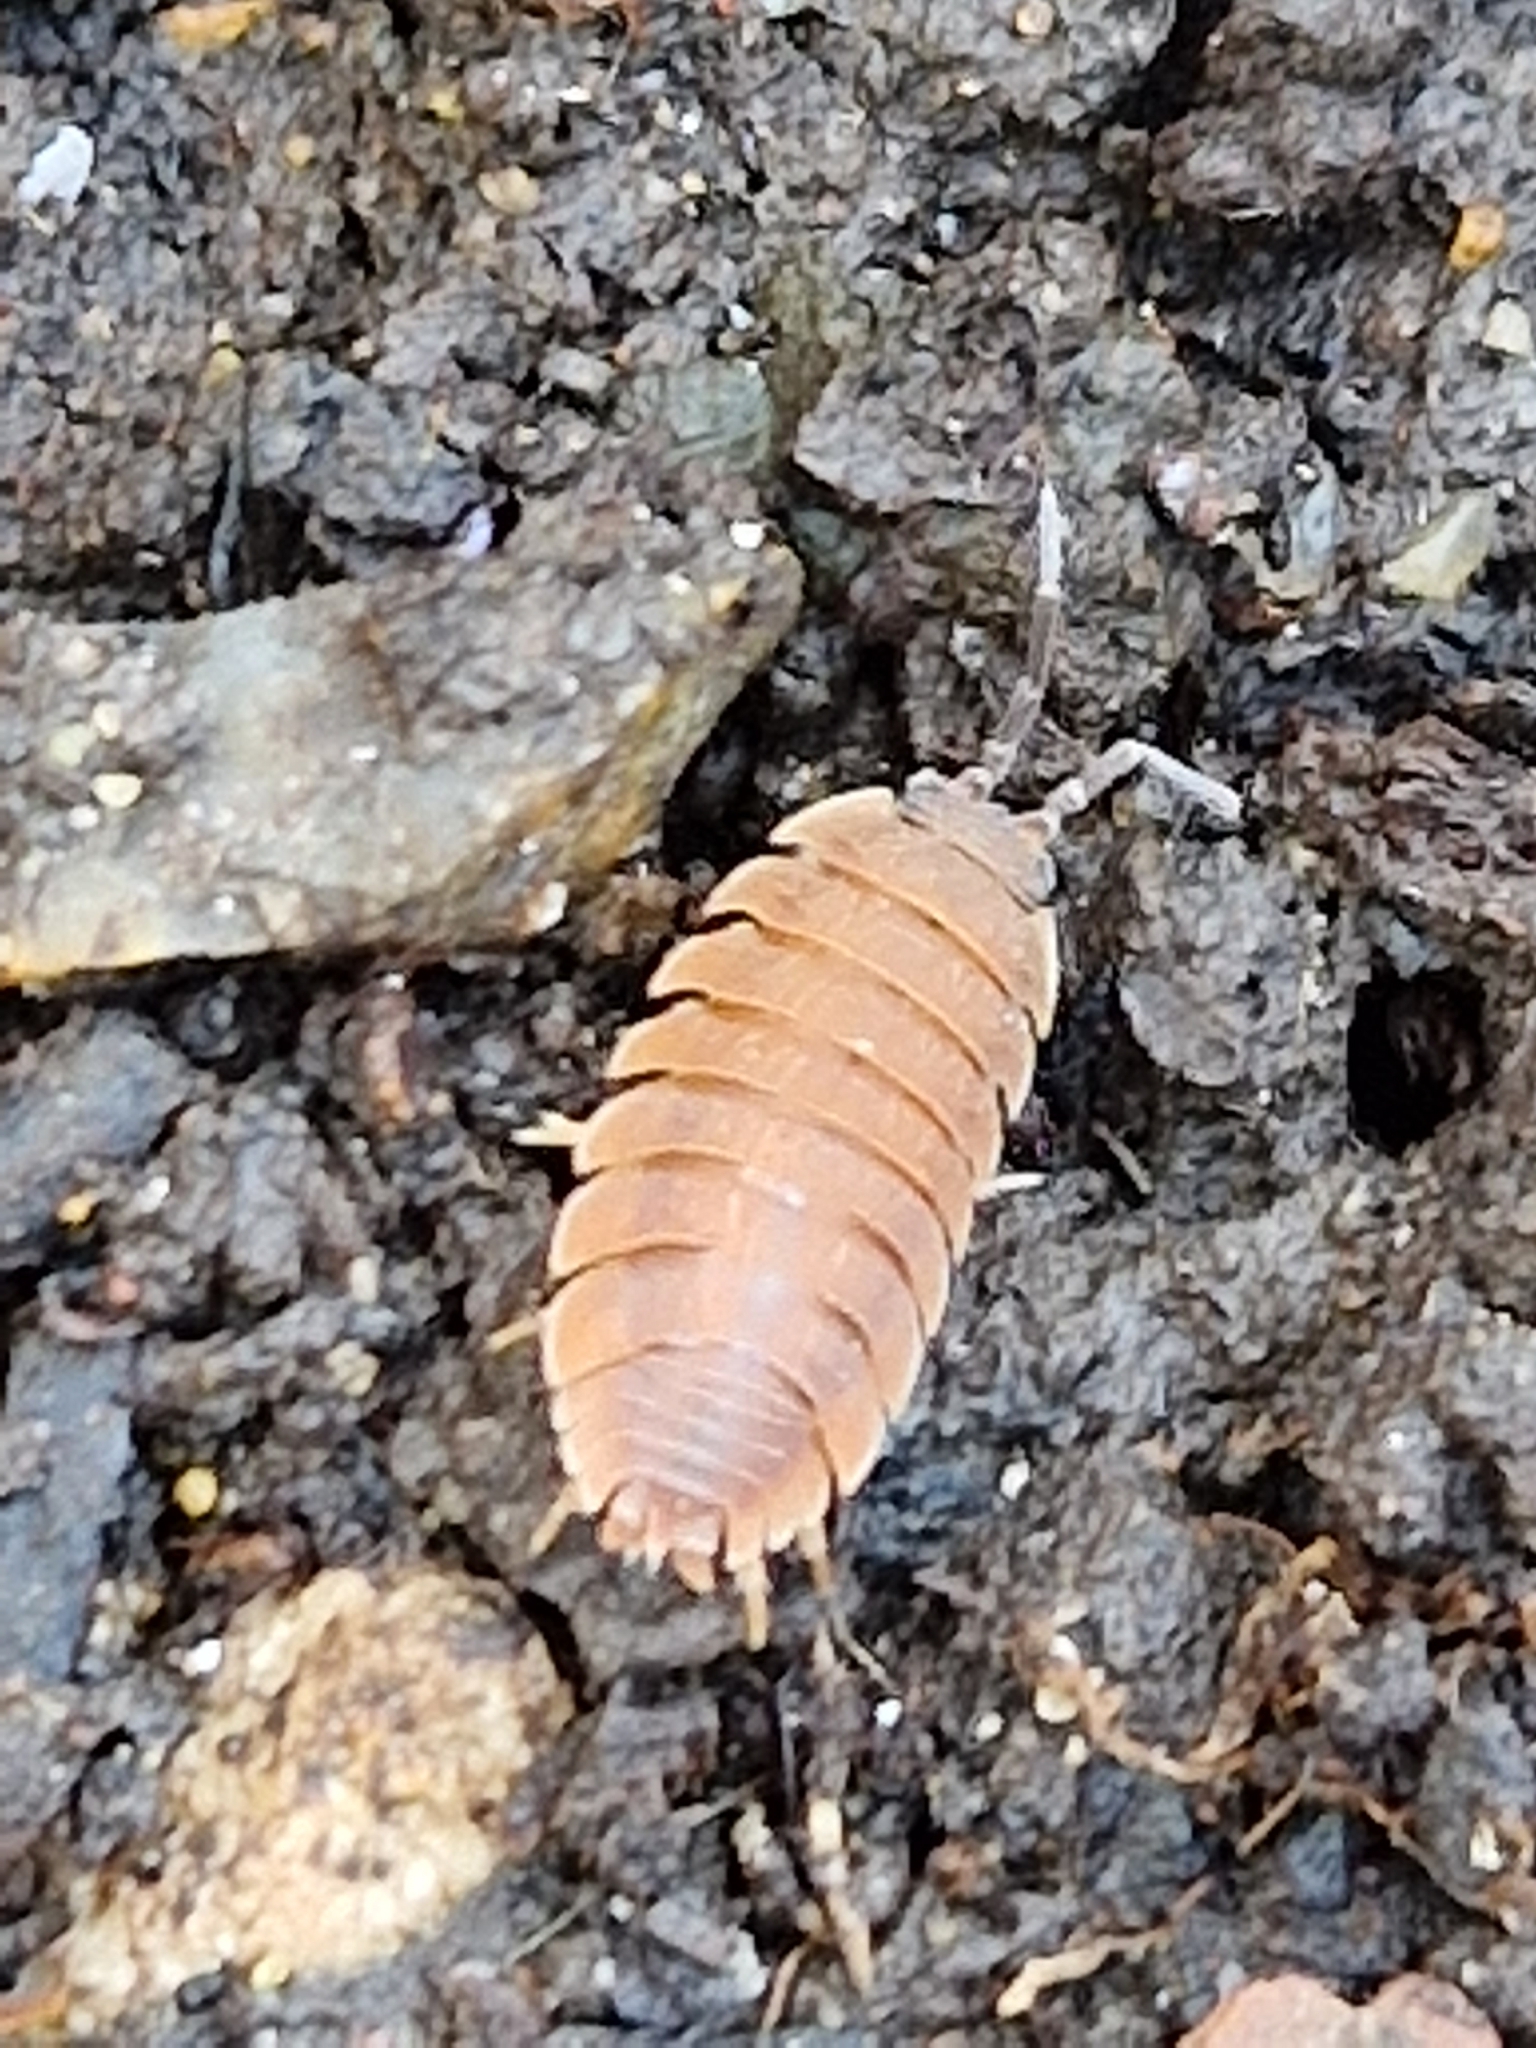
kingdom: Animalia
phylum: Arthropoda
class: Malacostraca
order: Isopoda
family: Porcellionidae
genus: Porcellio
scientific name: Porcellio scaber
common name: Common rough woodlouse
